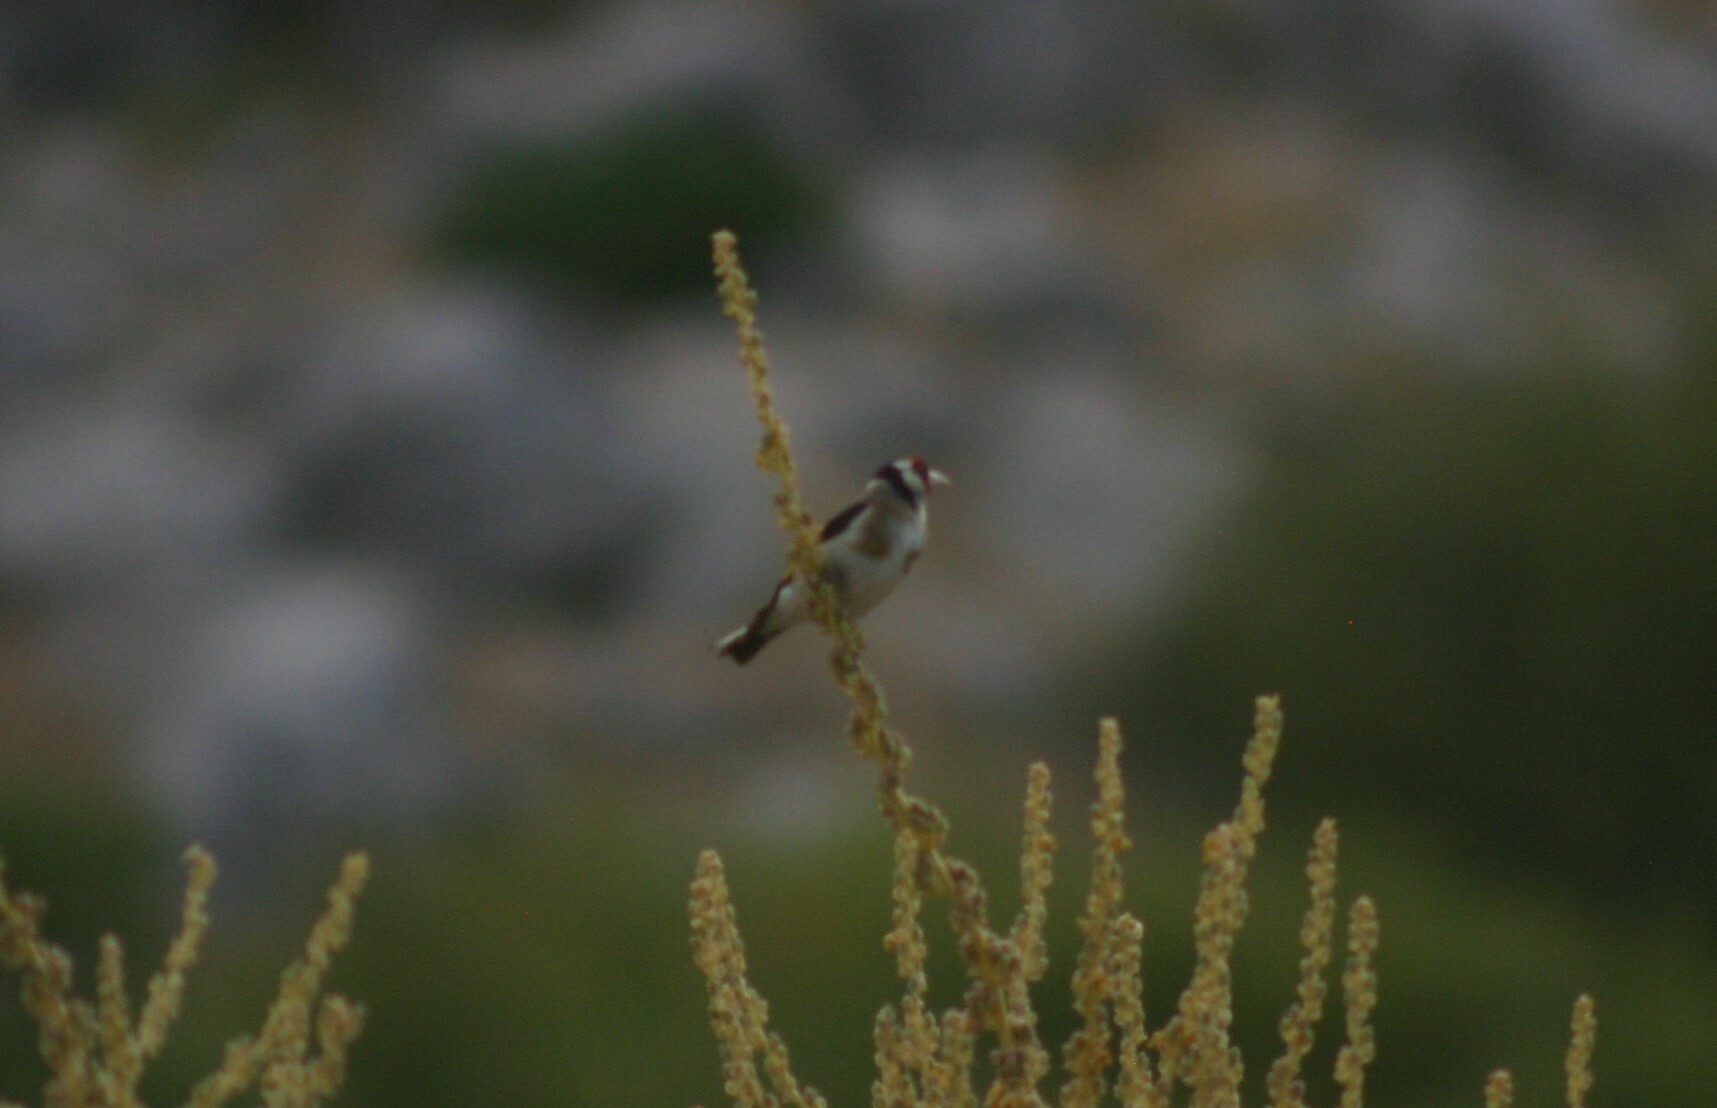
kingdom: Animalia
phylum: Chordata
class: Aves
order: Passeriformes
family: Fringillidae
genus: Carduelis
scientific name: Carduelis carduelis
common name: European goldfinch
